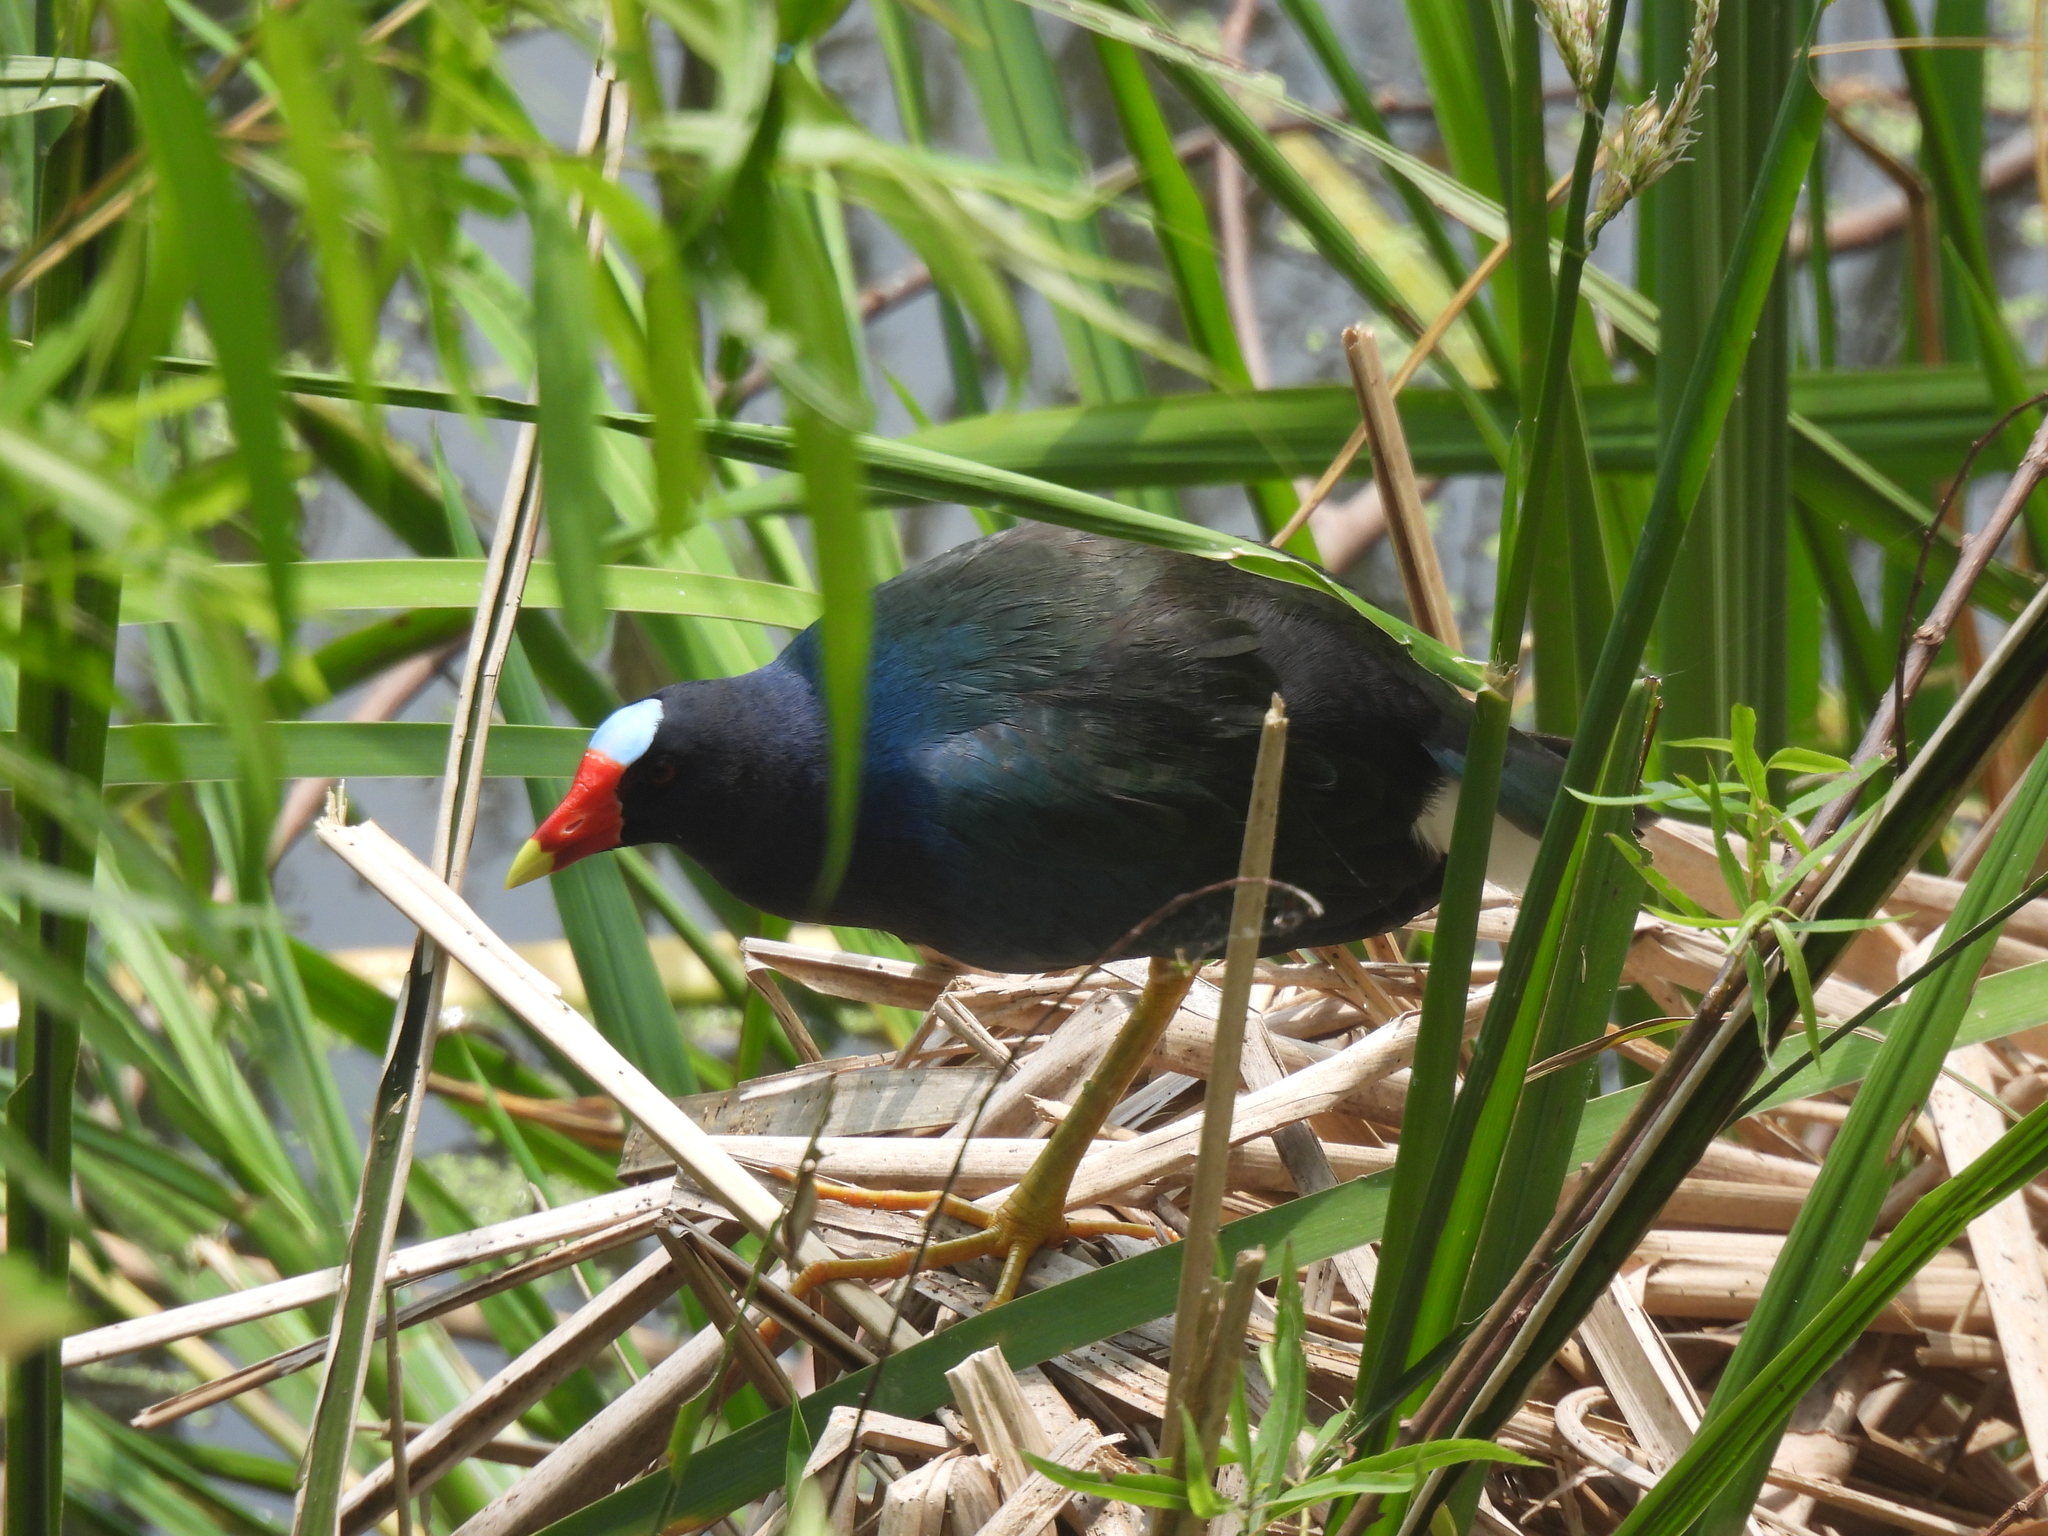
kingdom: Animalia
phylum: Chordata
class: Aves
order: Gruiformes
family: Rallidae
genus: Porphyrio
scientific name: Porphyrio martinica
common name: Purple gallinule
